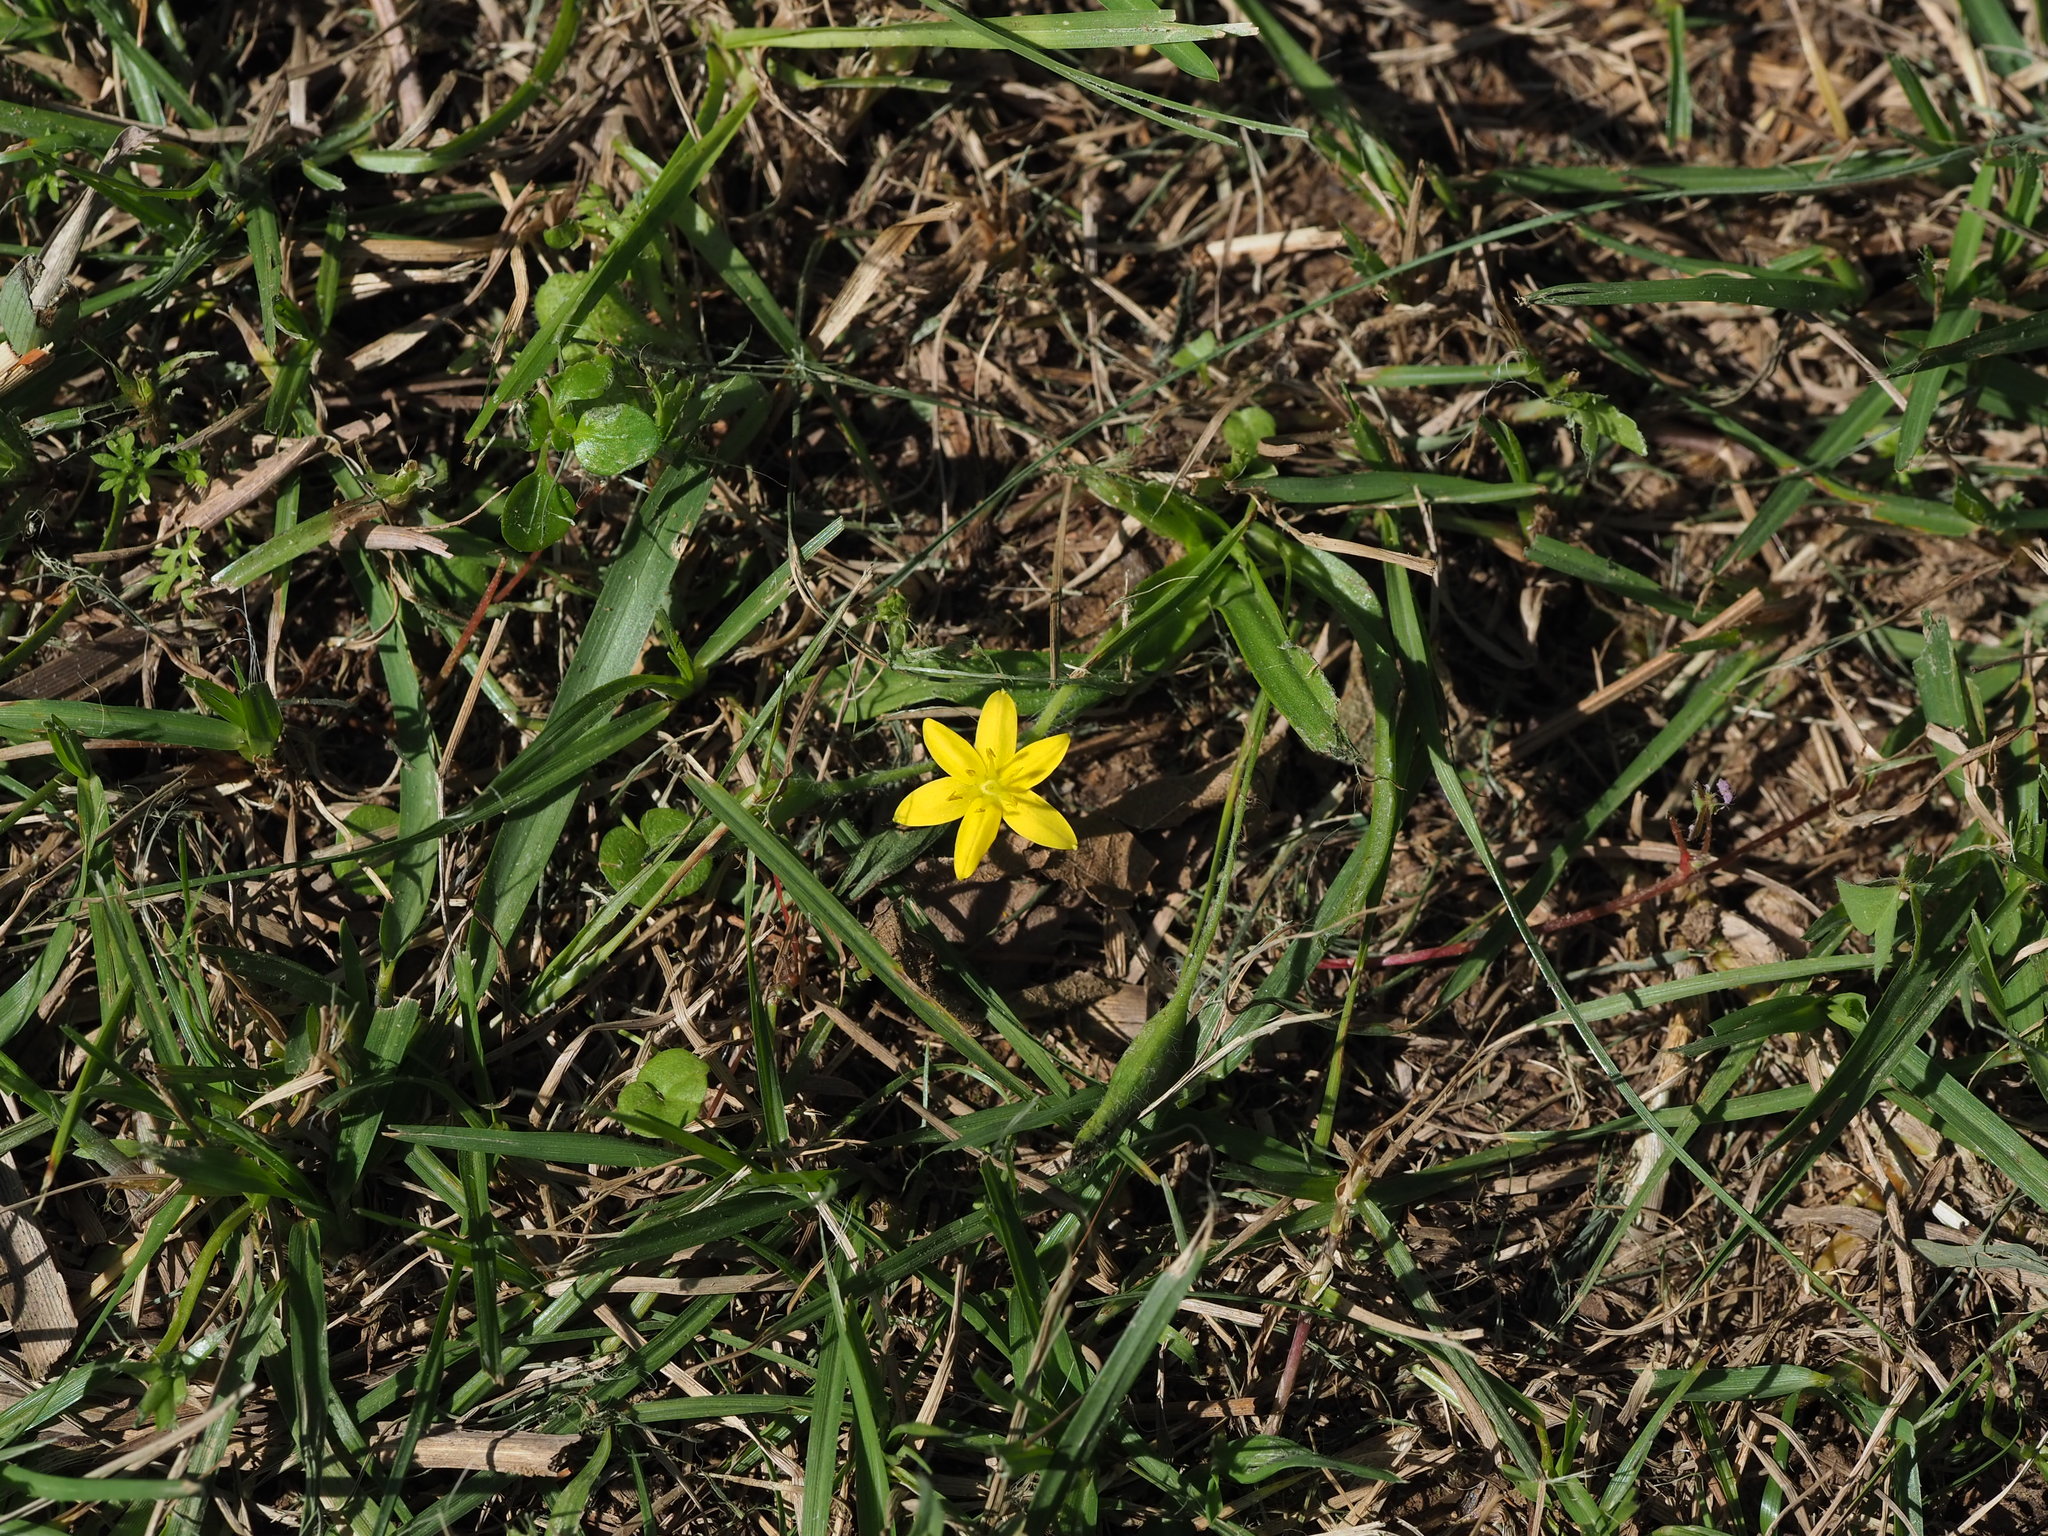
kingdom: Plantae
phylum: Tracheophyta
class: Liliopsida
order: Asparagales
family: Hypoxidaceae
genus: Hypoxis
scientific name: Hypoxis aurea
